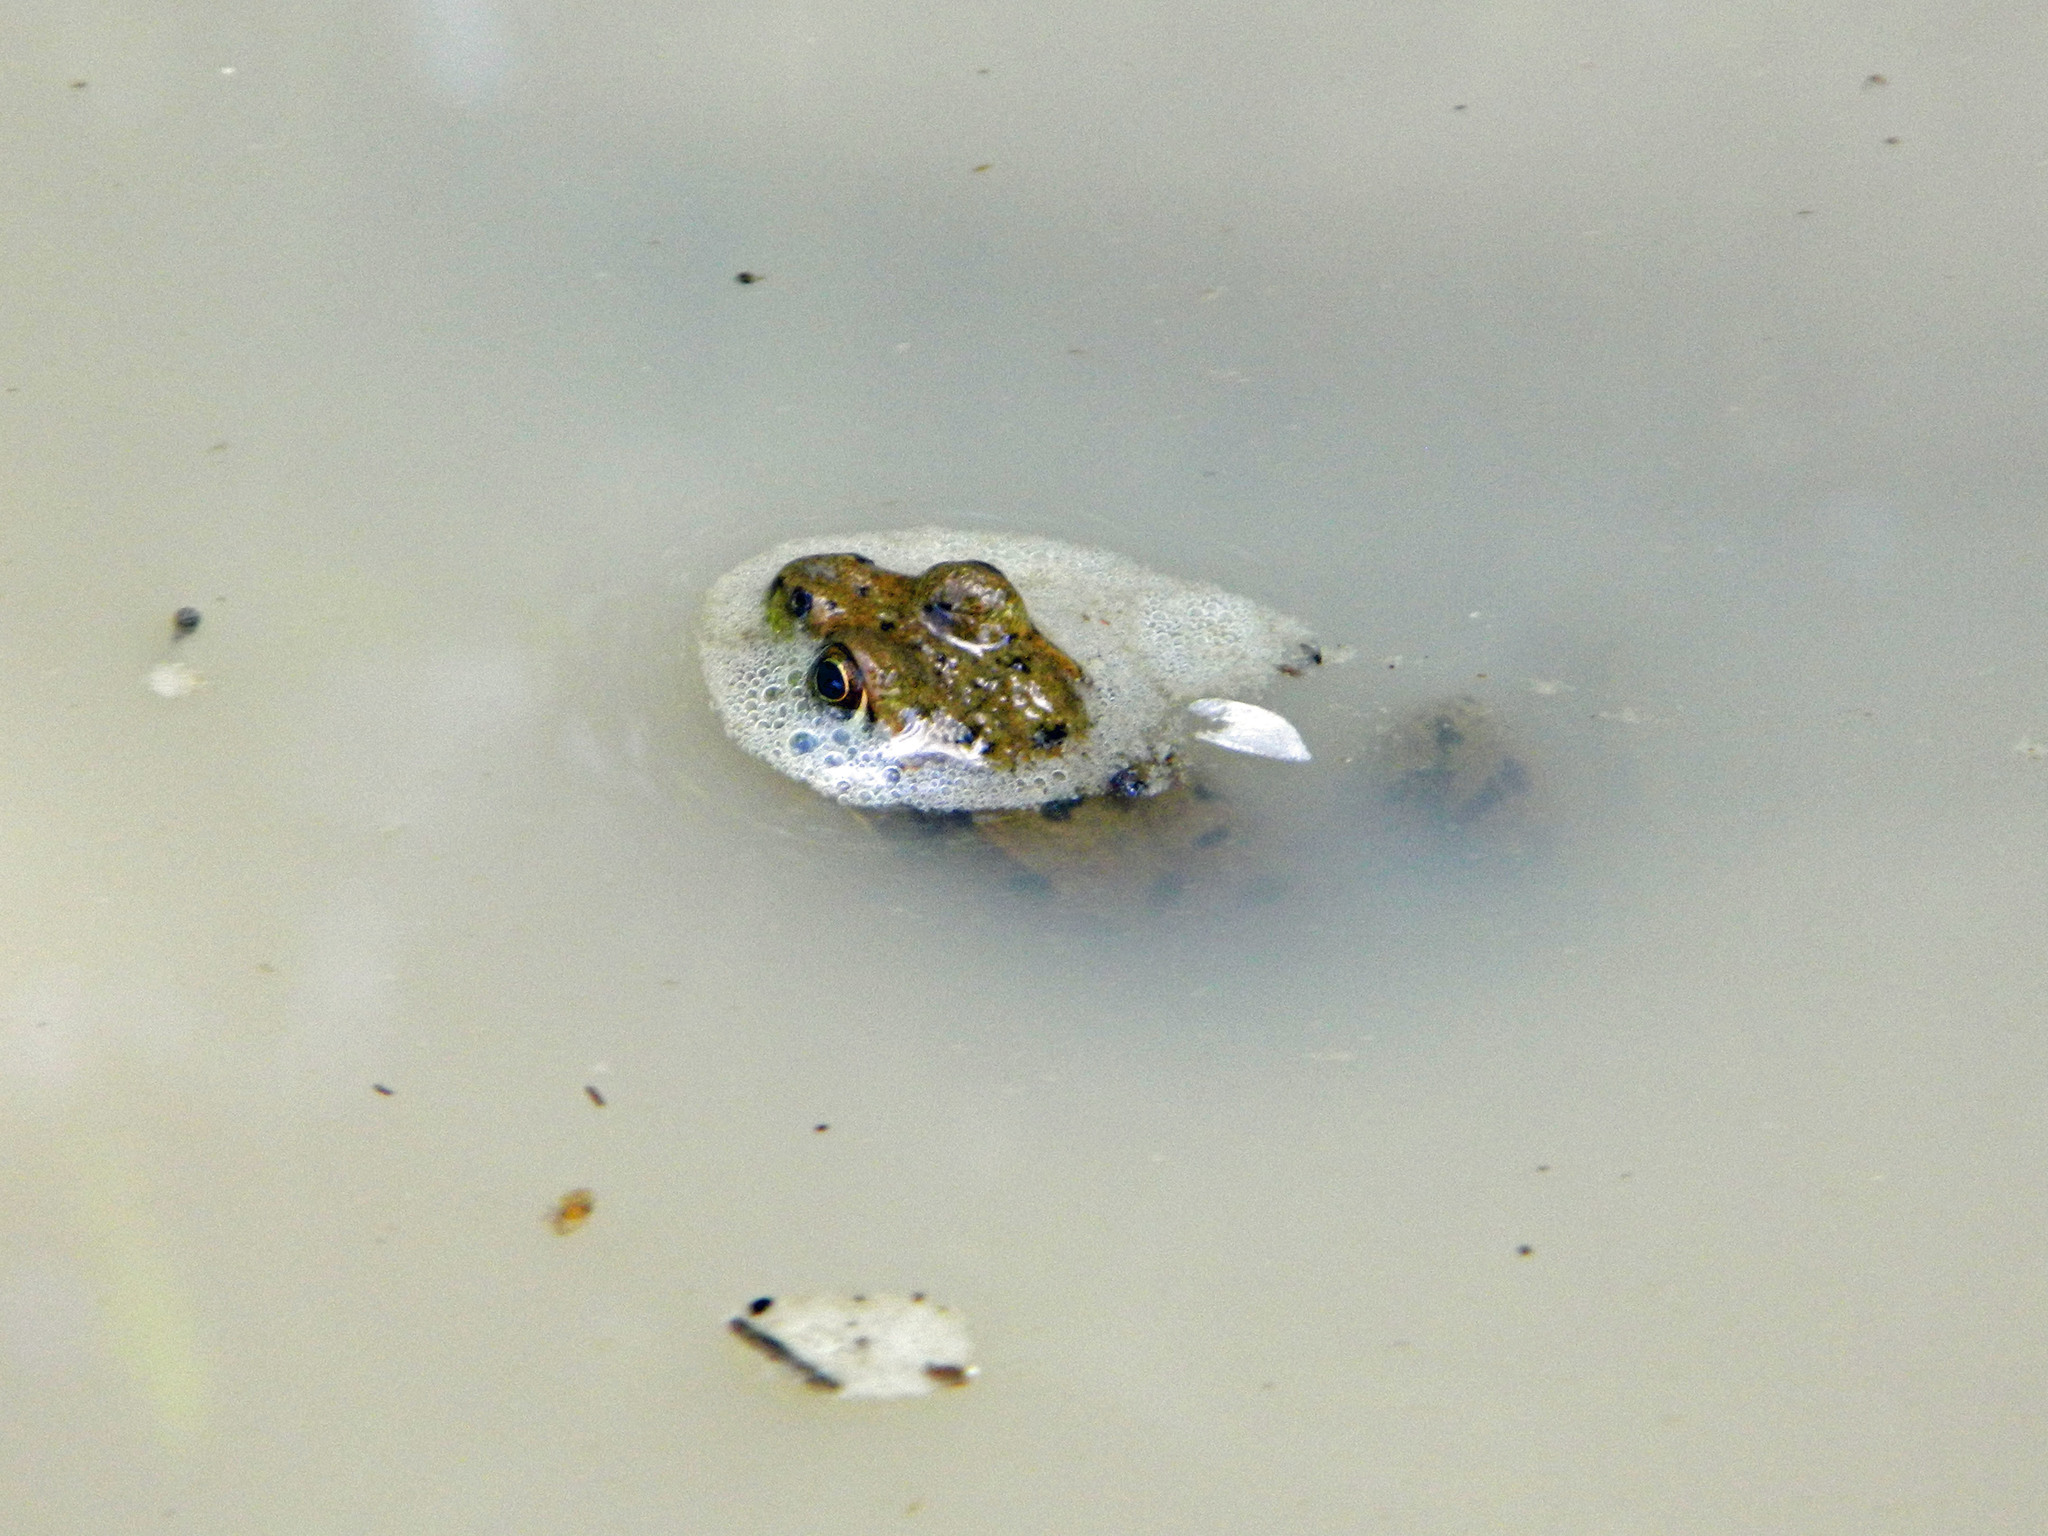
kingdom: Animalia
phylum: Chordata
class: Amphibia
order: Anura
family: Ranidae
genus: Lithobates
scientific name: Lithobates clamitans
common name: Green frog
